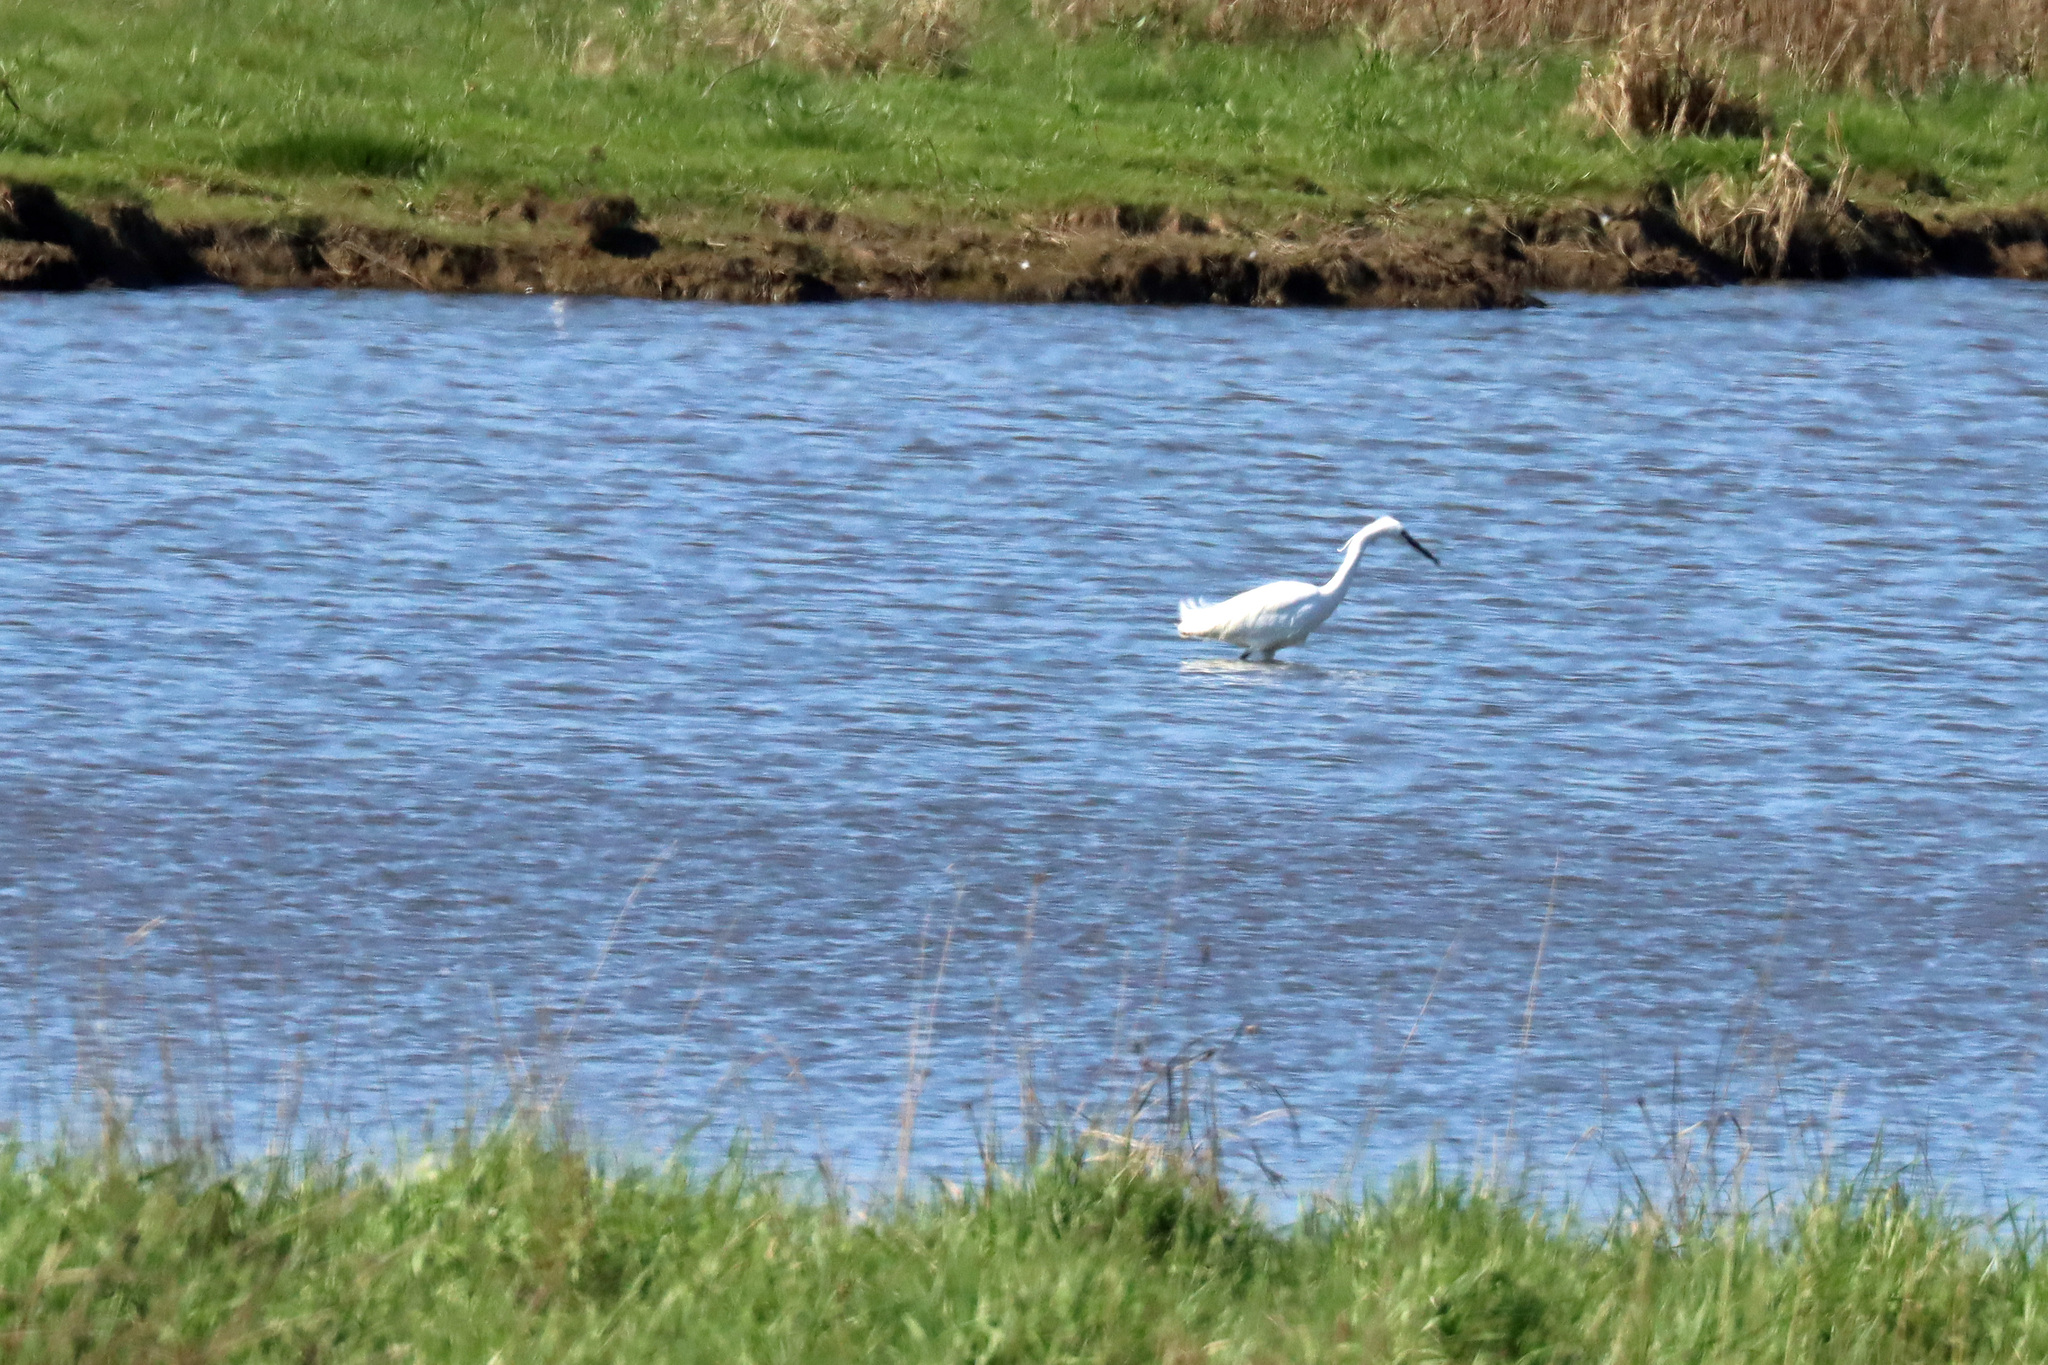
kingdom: Animalia
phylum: Chordata
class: Aves
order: Pelecaniformes
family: Ardeidae
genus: Egretta
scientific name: Egretta garzetta
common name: Little egret
